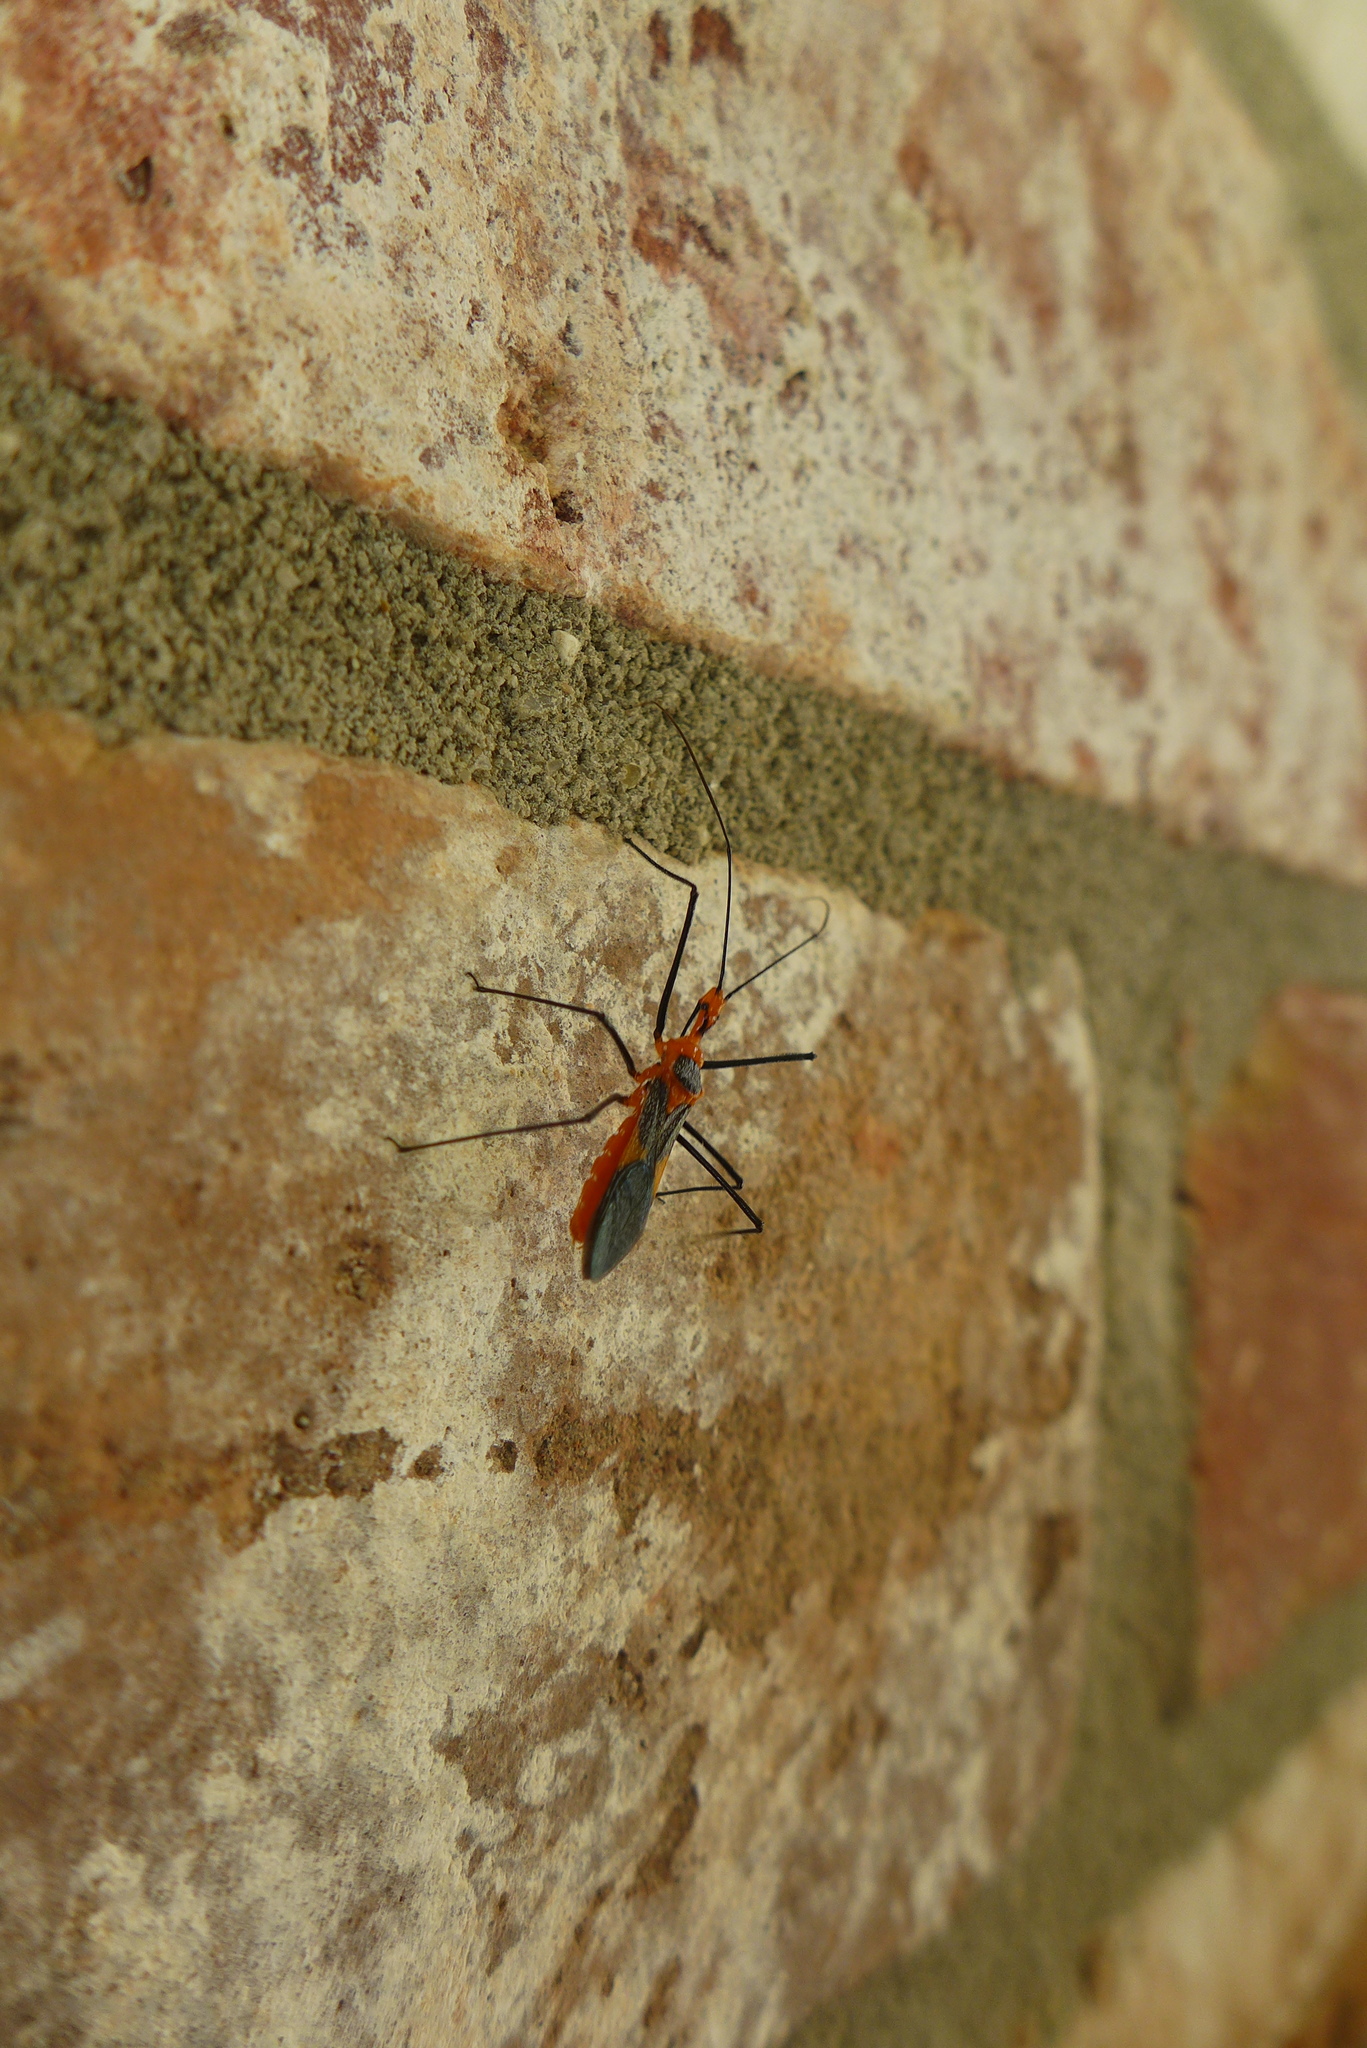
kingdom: Animalia
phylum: Arthropoda
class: Insecta
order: Hemiptera
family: Reduviidae
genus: Zelus
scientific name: Zelus longipes
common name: Milkweed assassin bug
